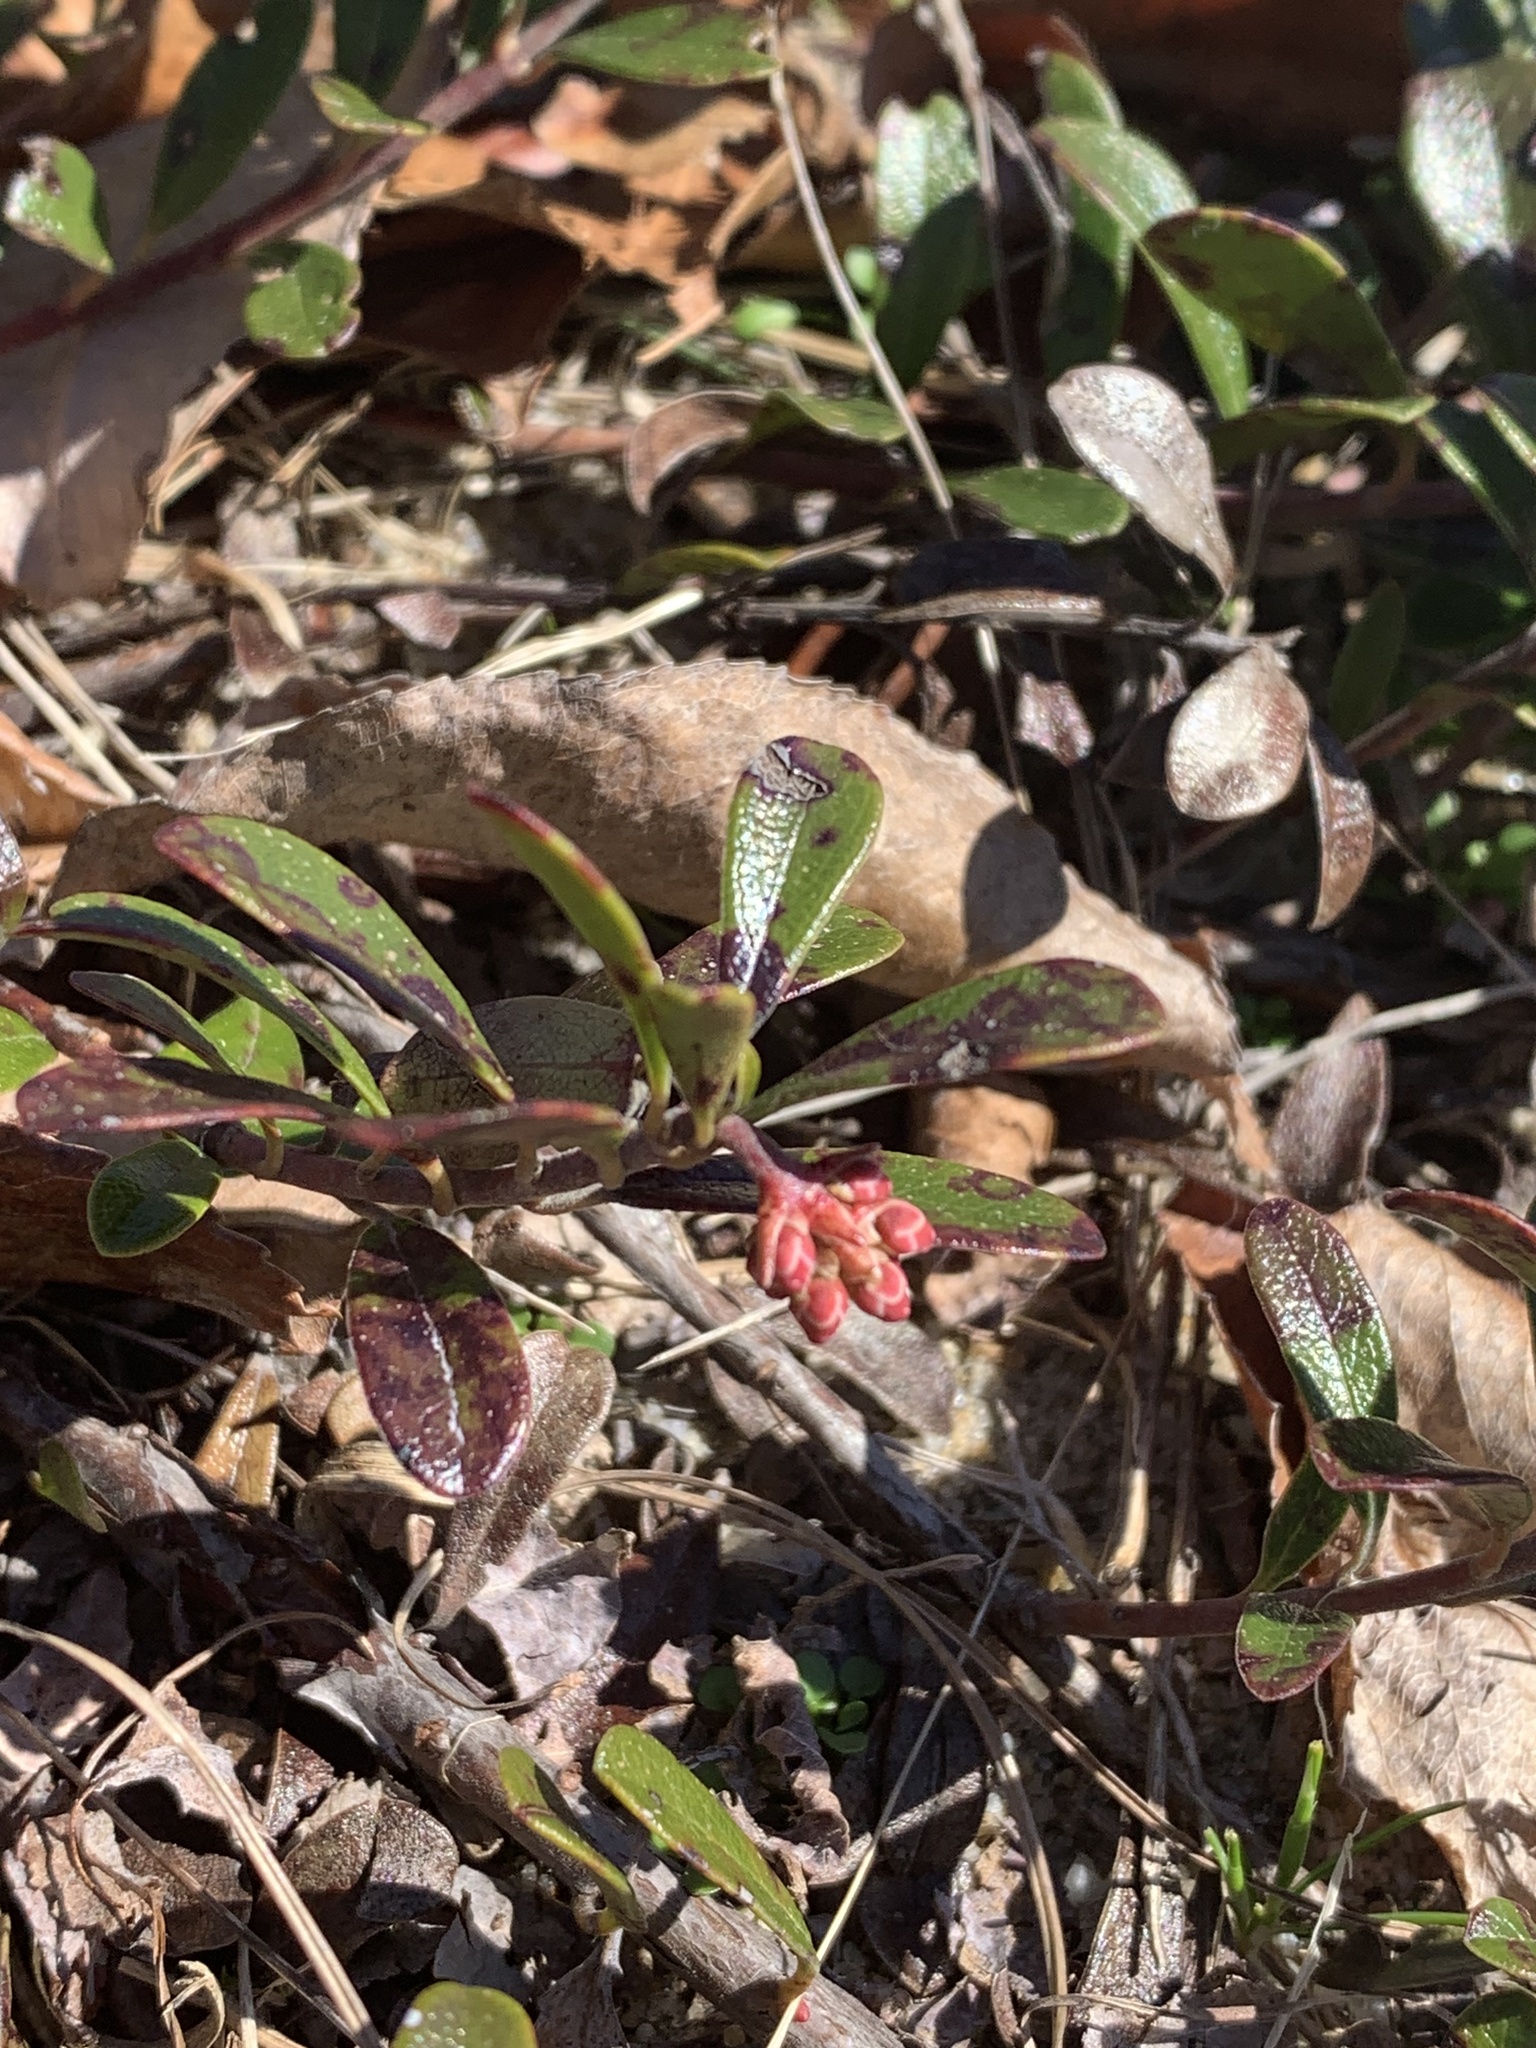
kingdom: Plantae
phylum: Tracheophyta
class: Magnoliopsida
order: Ericales
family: Ericaceae
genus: Arctostaphylos
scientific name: Arctostaphylos uva-ursi
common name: Bearberry
